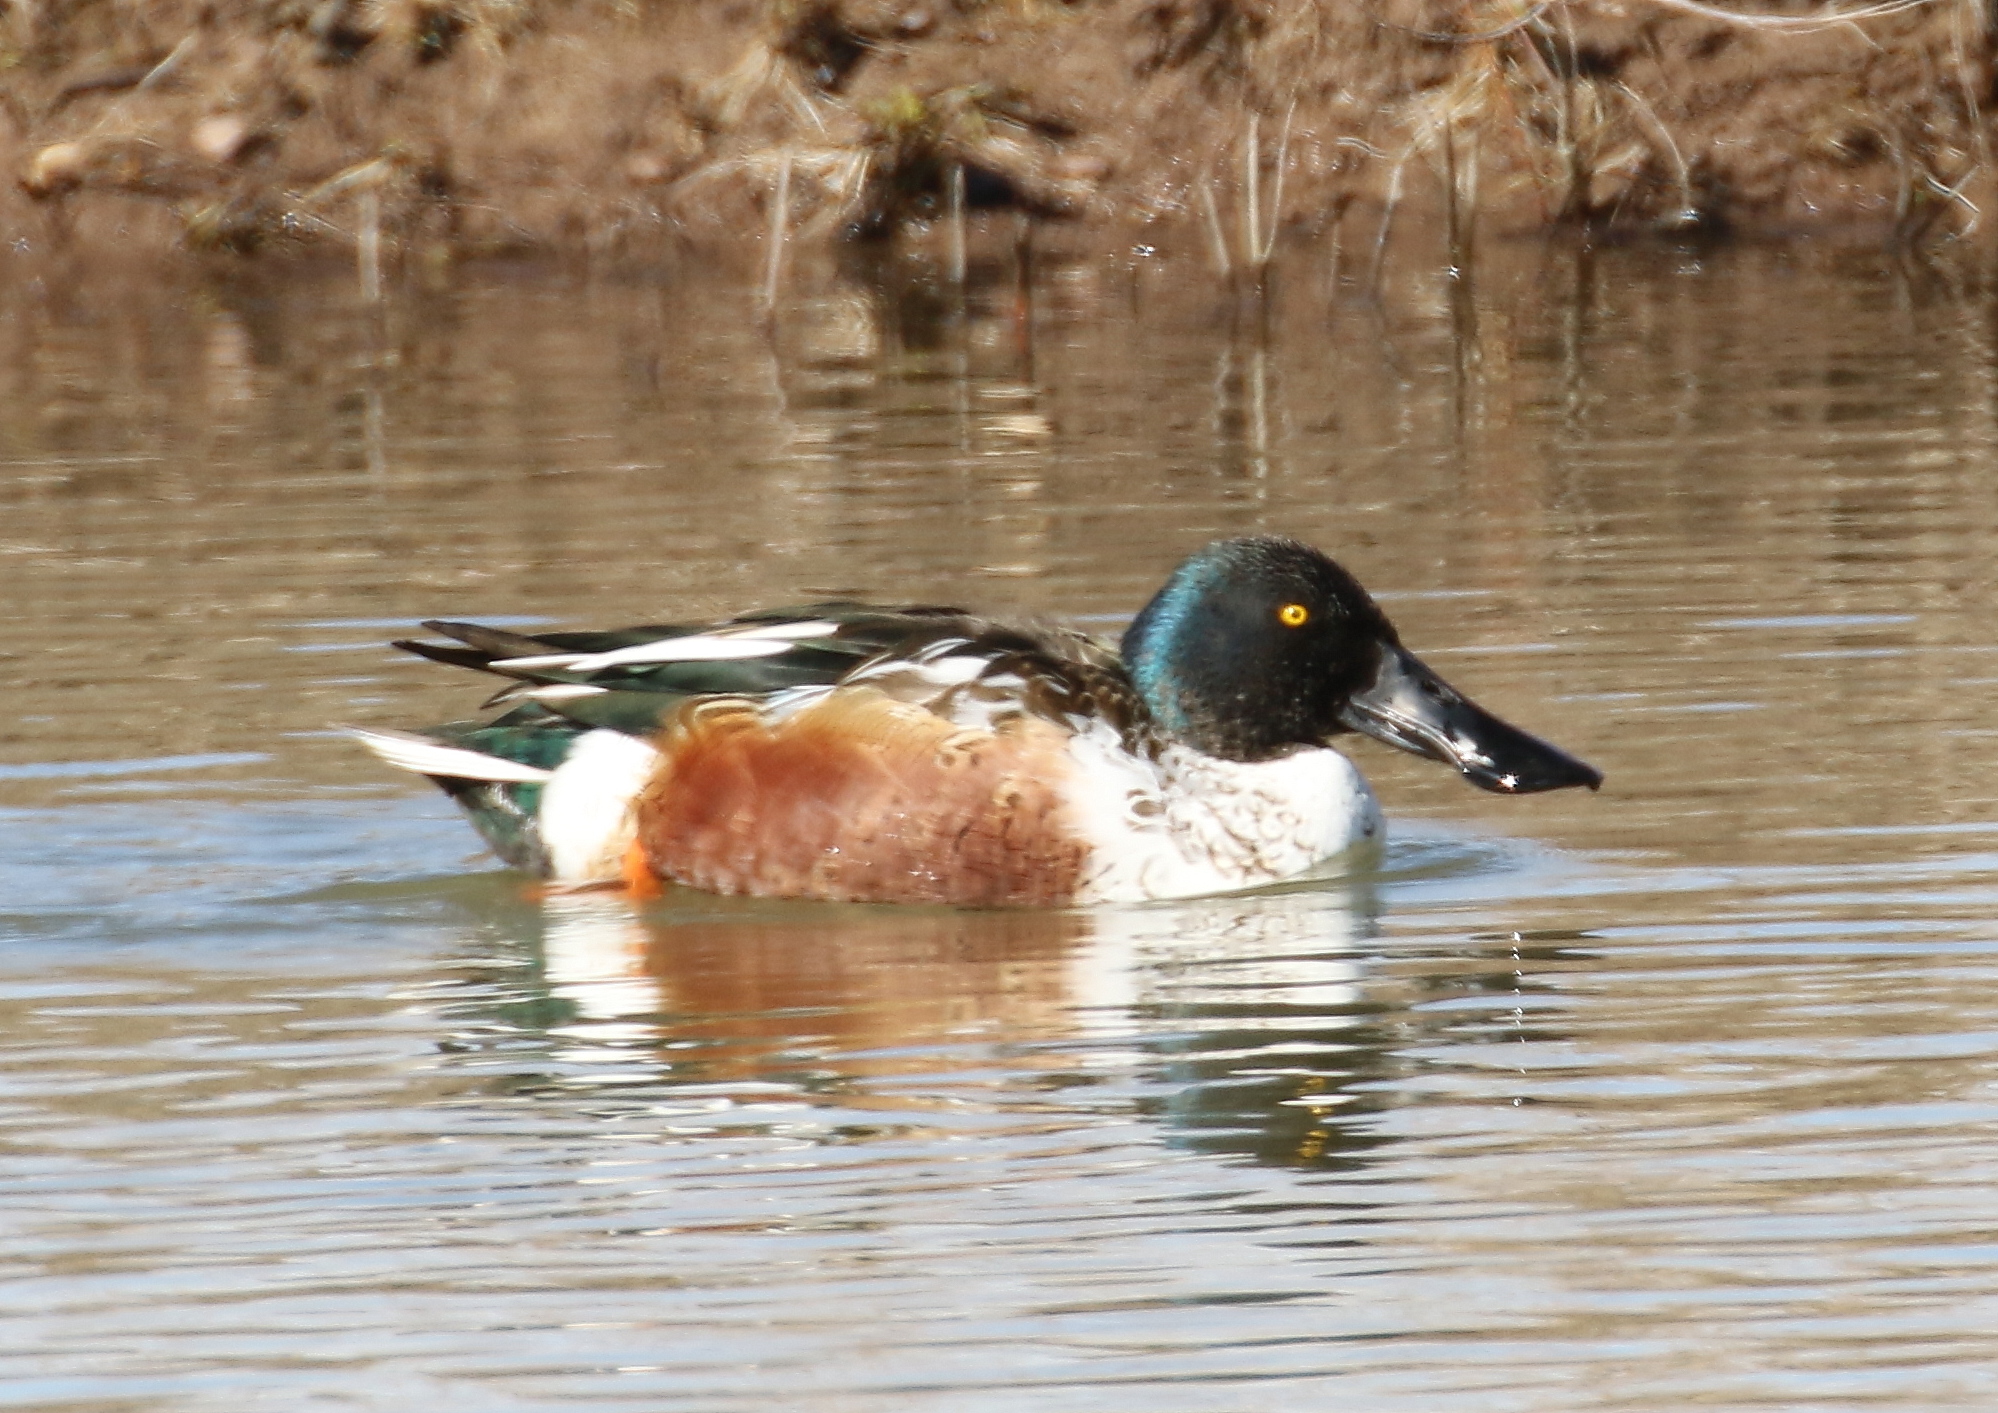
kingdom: Animalia
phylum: Chordata
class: Aves
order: Anseriformes
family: Anatidae
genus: Spatula
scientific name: Spatula clypeata
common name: Northern shoveler
